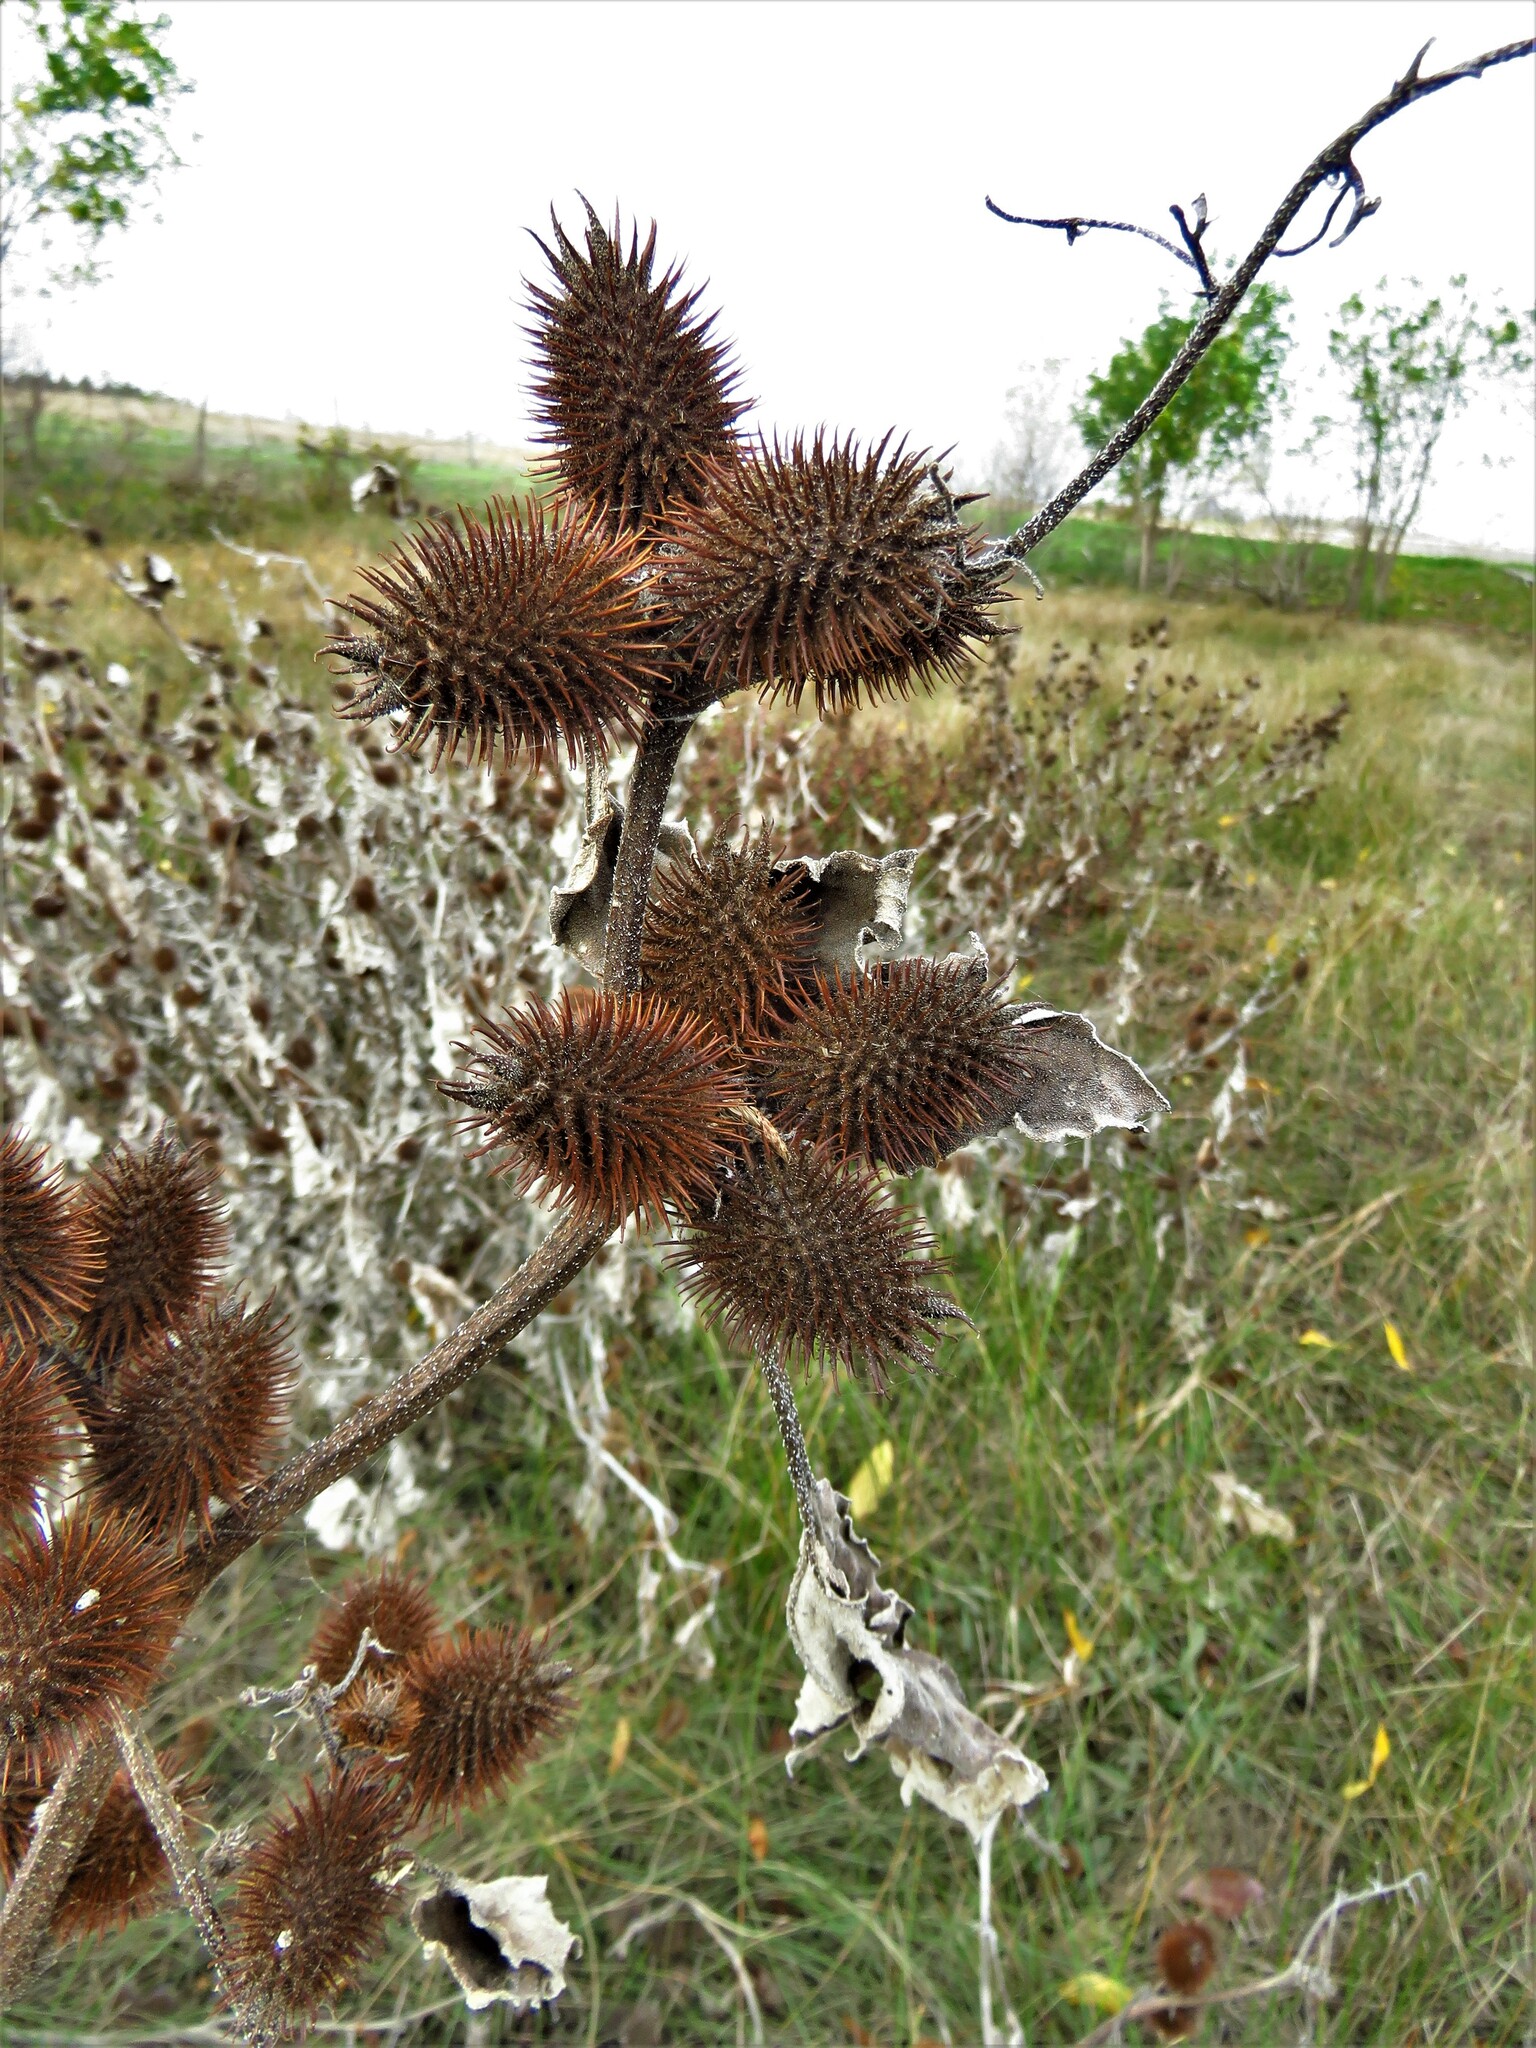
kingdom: Plantae
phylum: Tracheophyta
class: Magnoliopsida
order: Asterales
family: Asteraceae
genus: Xanthium
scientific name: Xanthium strumarium
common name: Rough cocklebur
